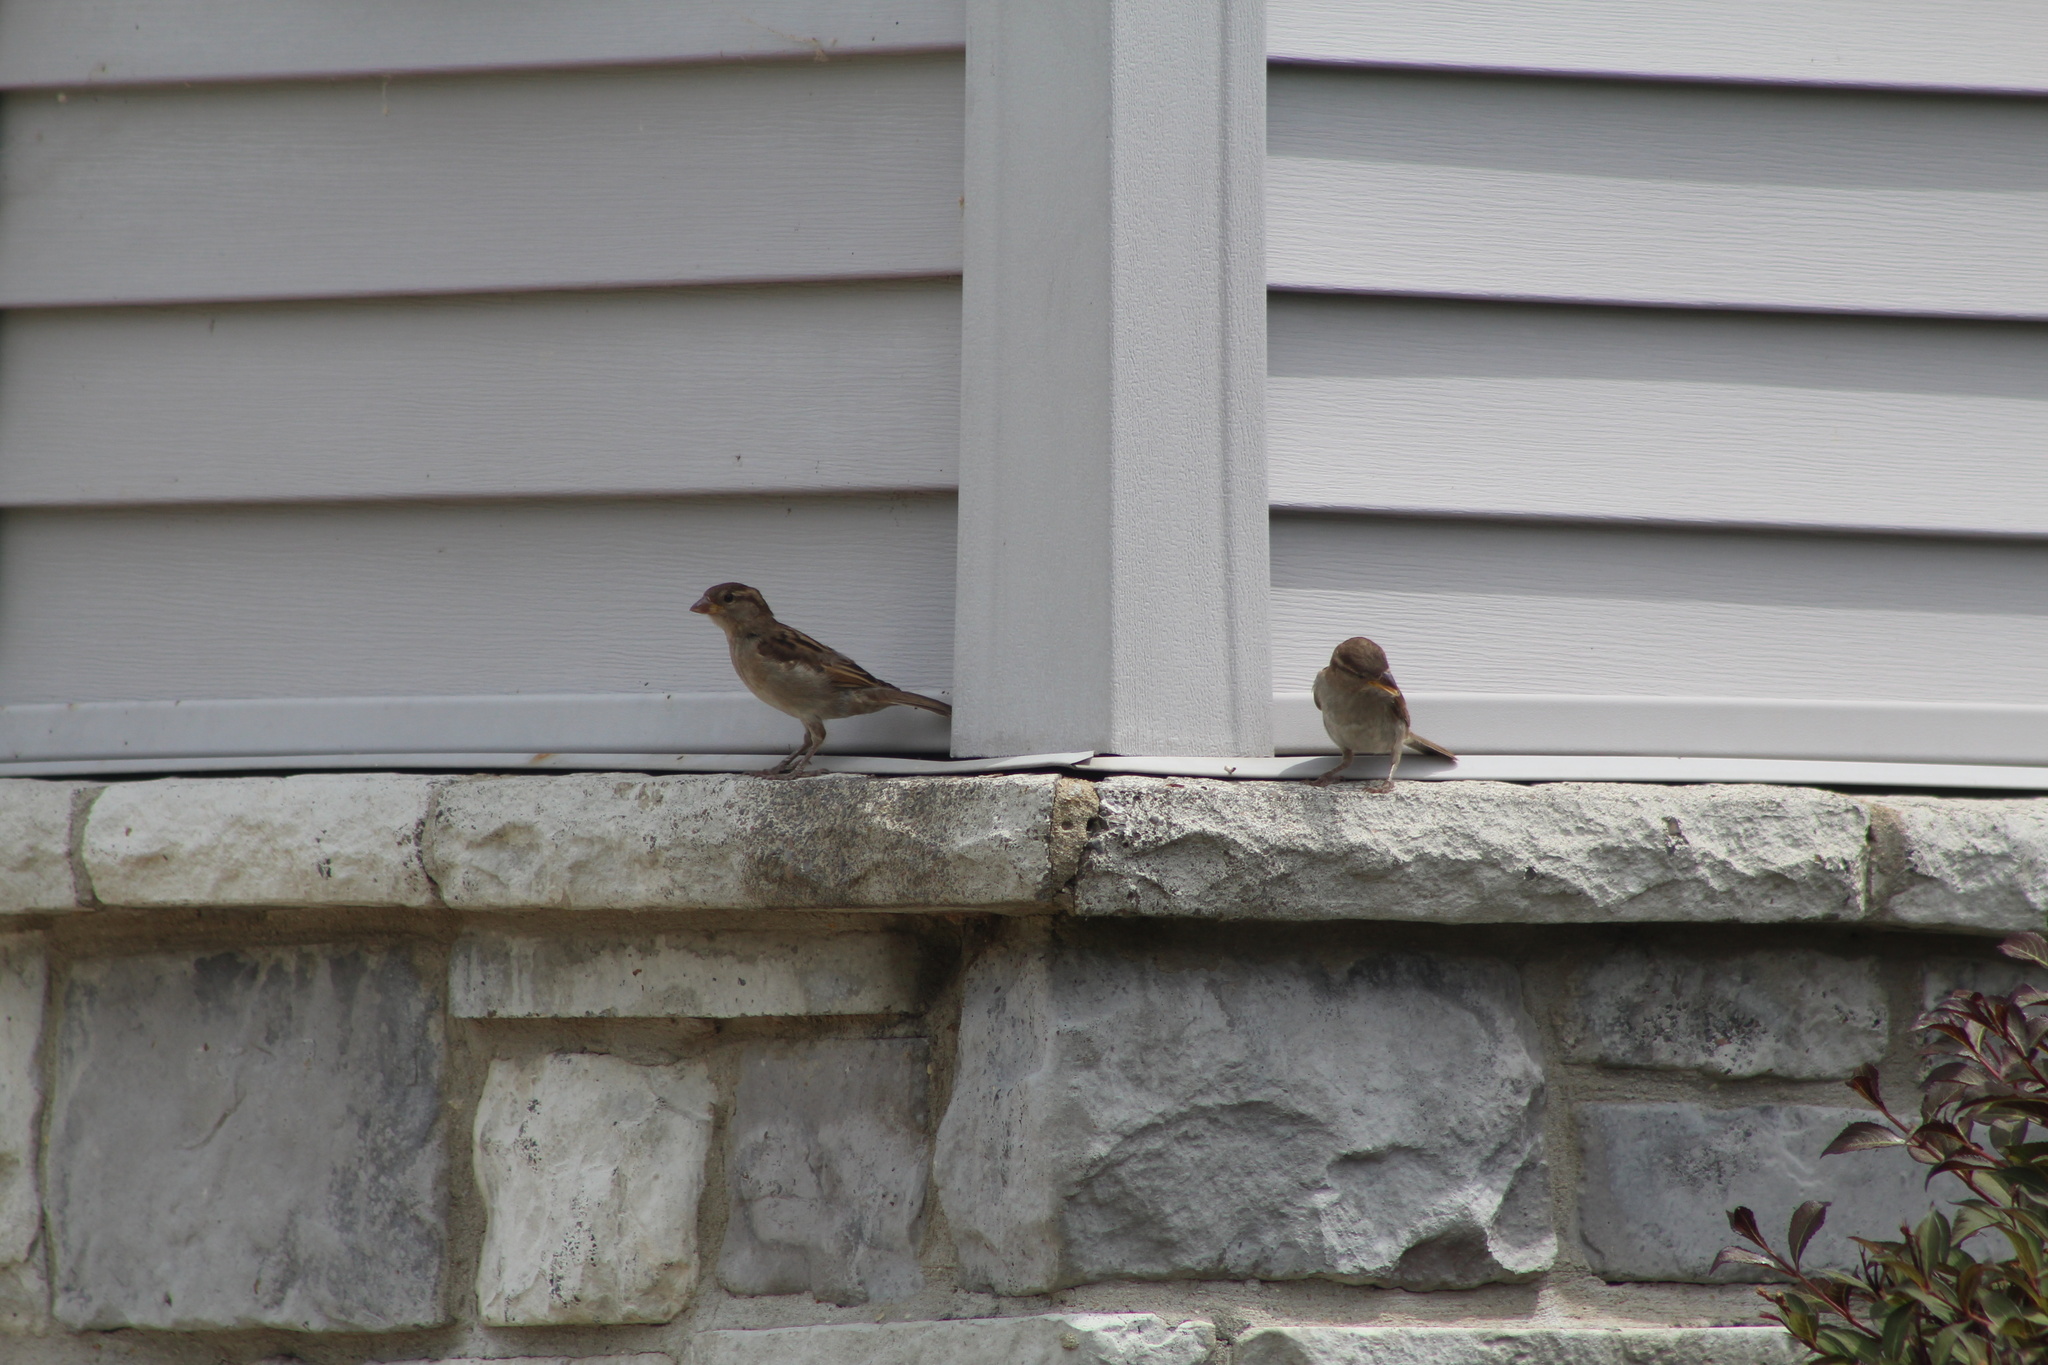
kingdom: Animalia
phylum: Chordata
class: Aves
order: Passeriformes
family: Passeridae
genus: Passer
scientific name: Passer domesticus
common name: House sparrow
